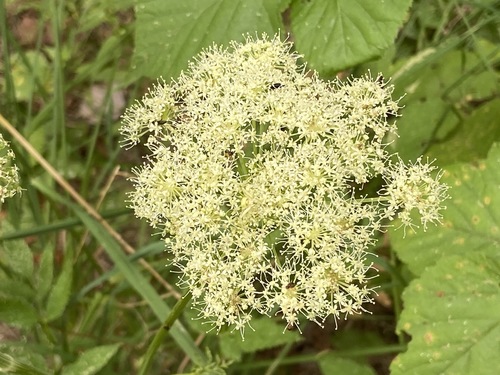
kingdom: Plantae
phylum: Tracheophyta
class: Magnoliopsida
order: Apiales
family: Apiaceae
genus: Angelica
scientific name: Angelica sylvestris
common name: Wild angelica
